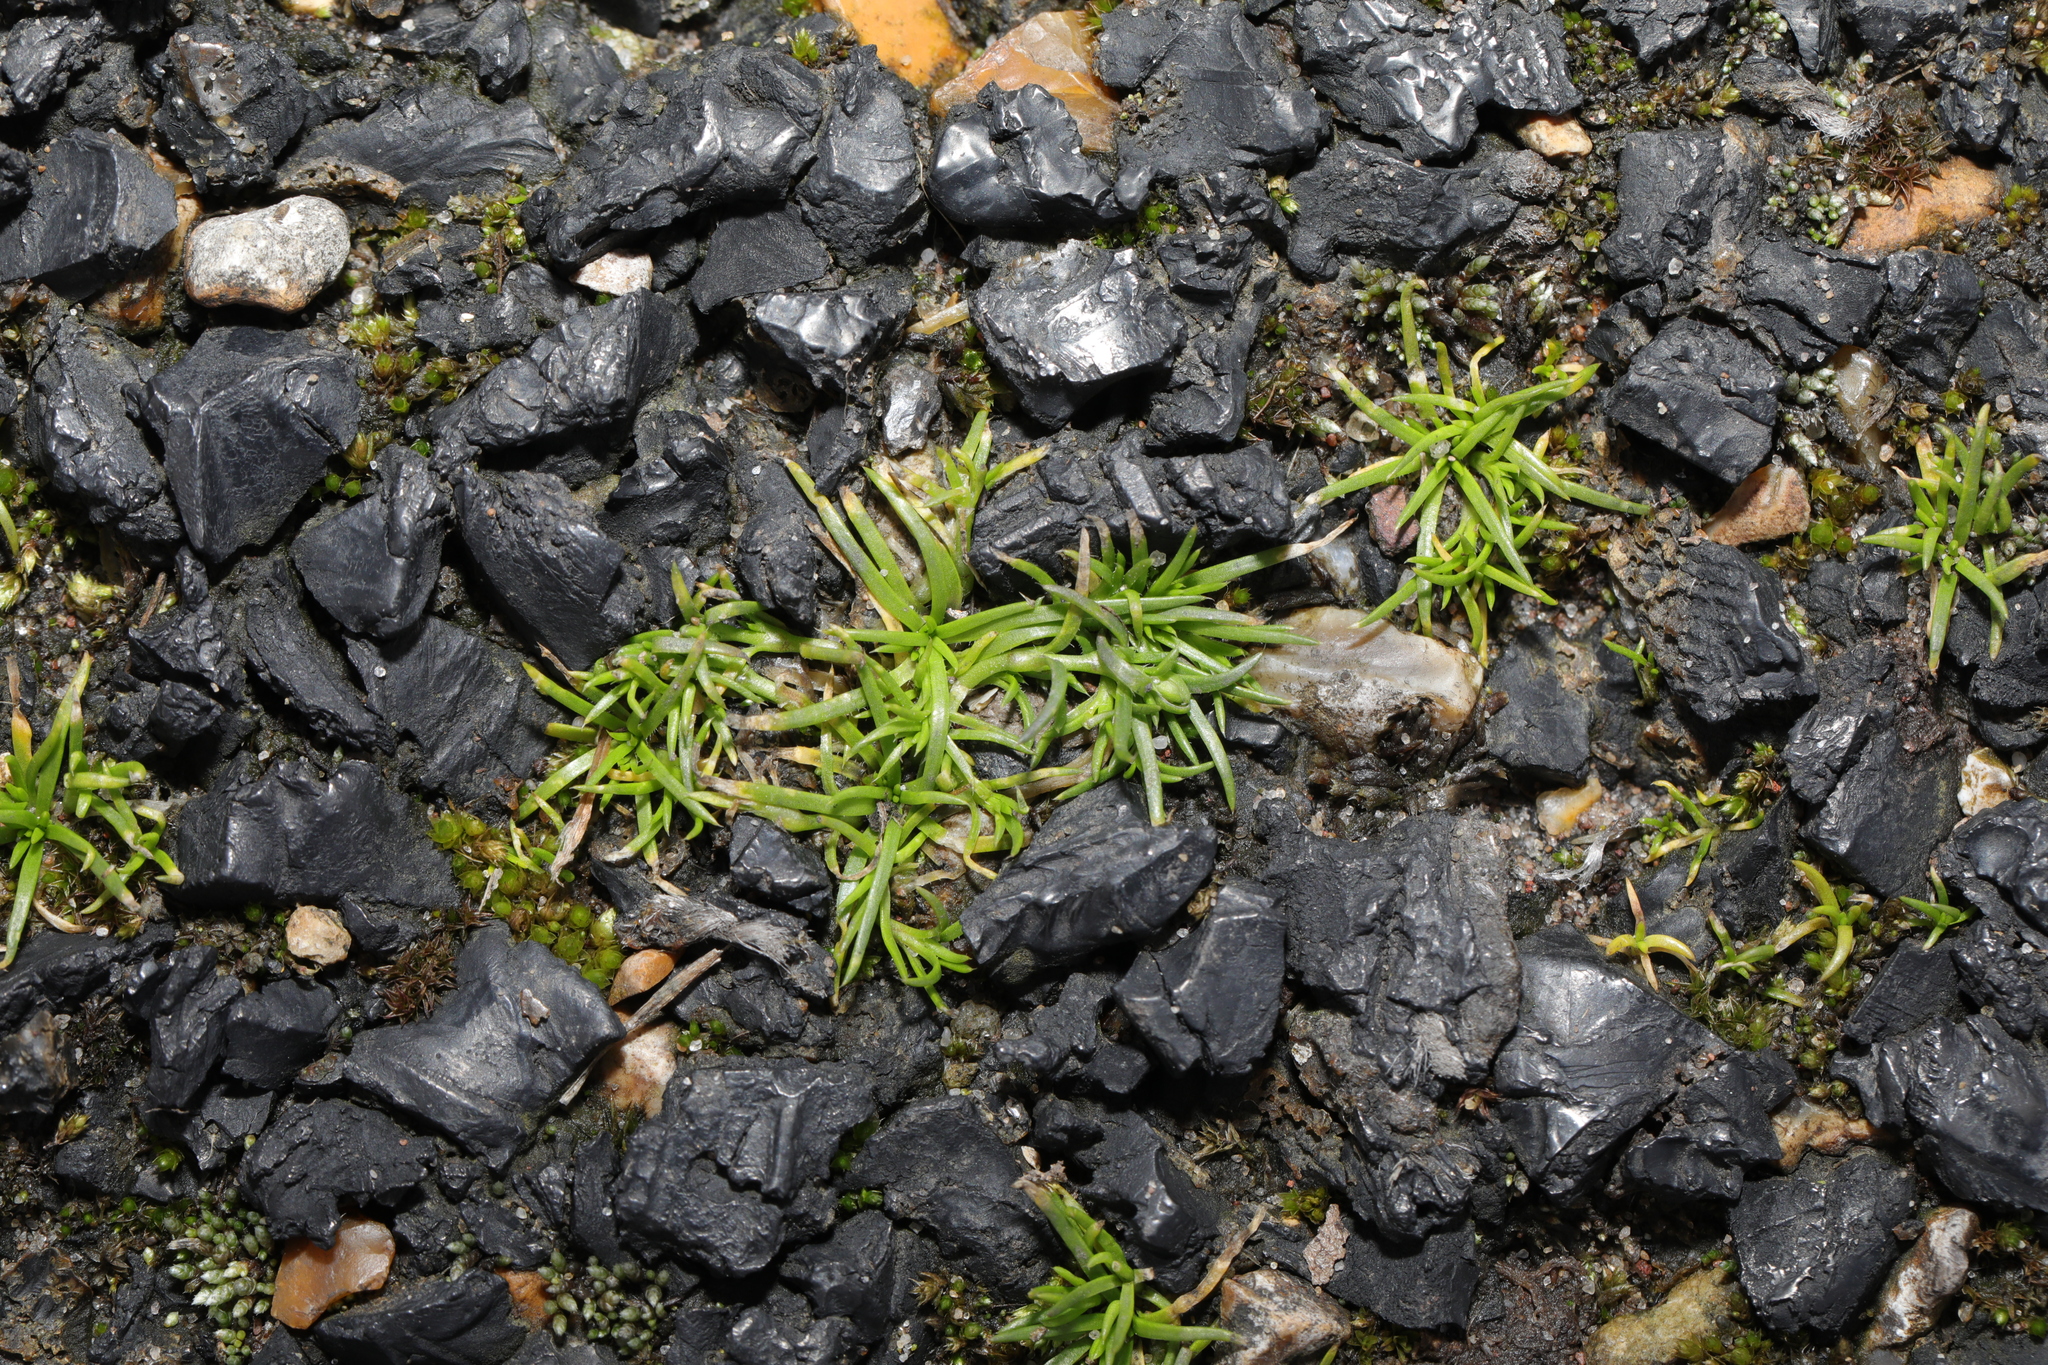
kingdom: Plantae
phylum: Tracheophyta
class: Magnoliopsida
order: Caryophyllales
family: Caryophyllaceae
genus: Sagina
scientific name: Sagina procumbens
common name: Procumbent pearlwort
